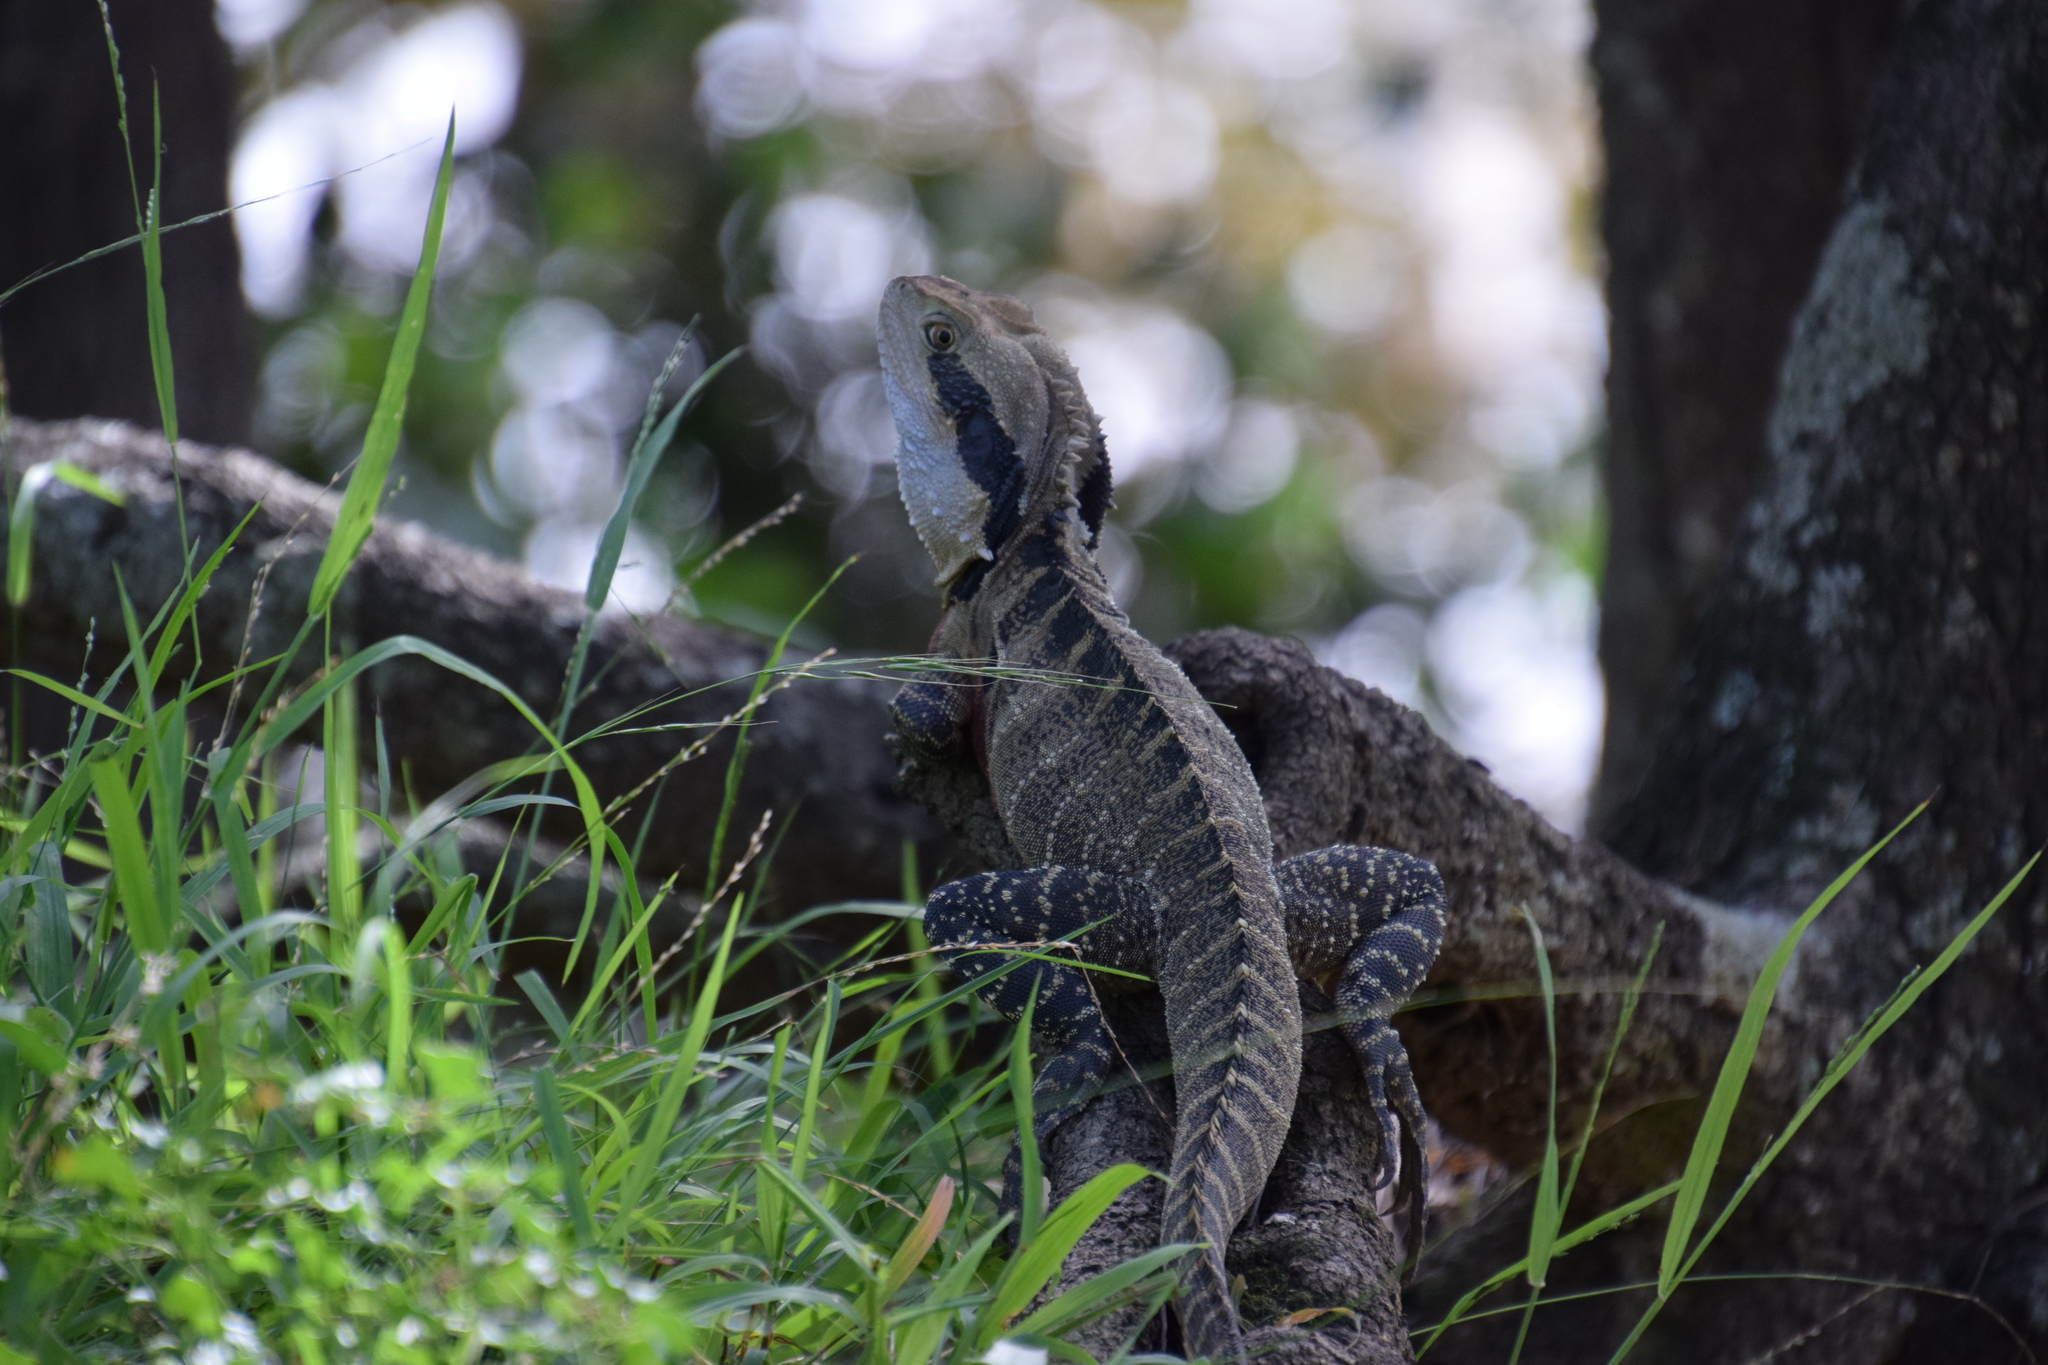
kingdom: Animalia
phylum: Chordata
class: Squamata
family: Agamidae
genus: Intellagama
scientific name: Intellagama lesueurii
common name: Eastern water dragon
